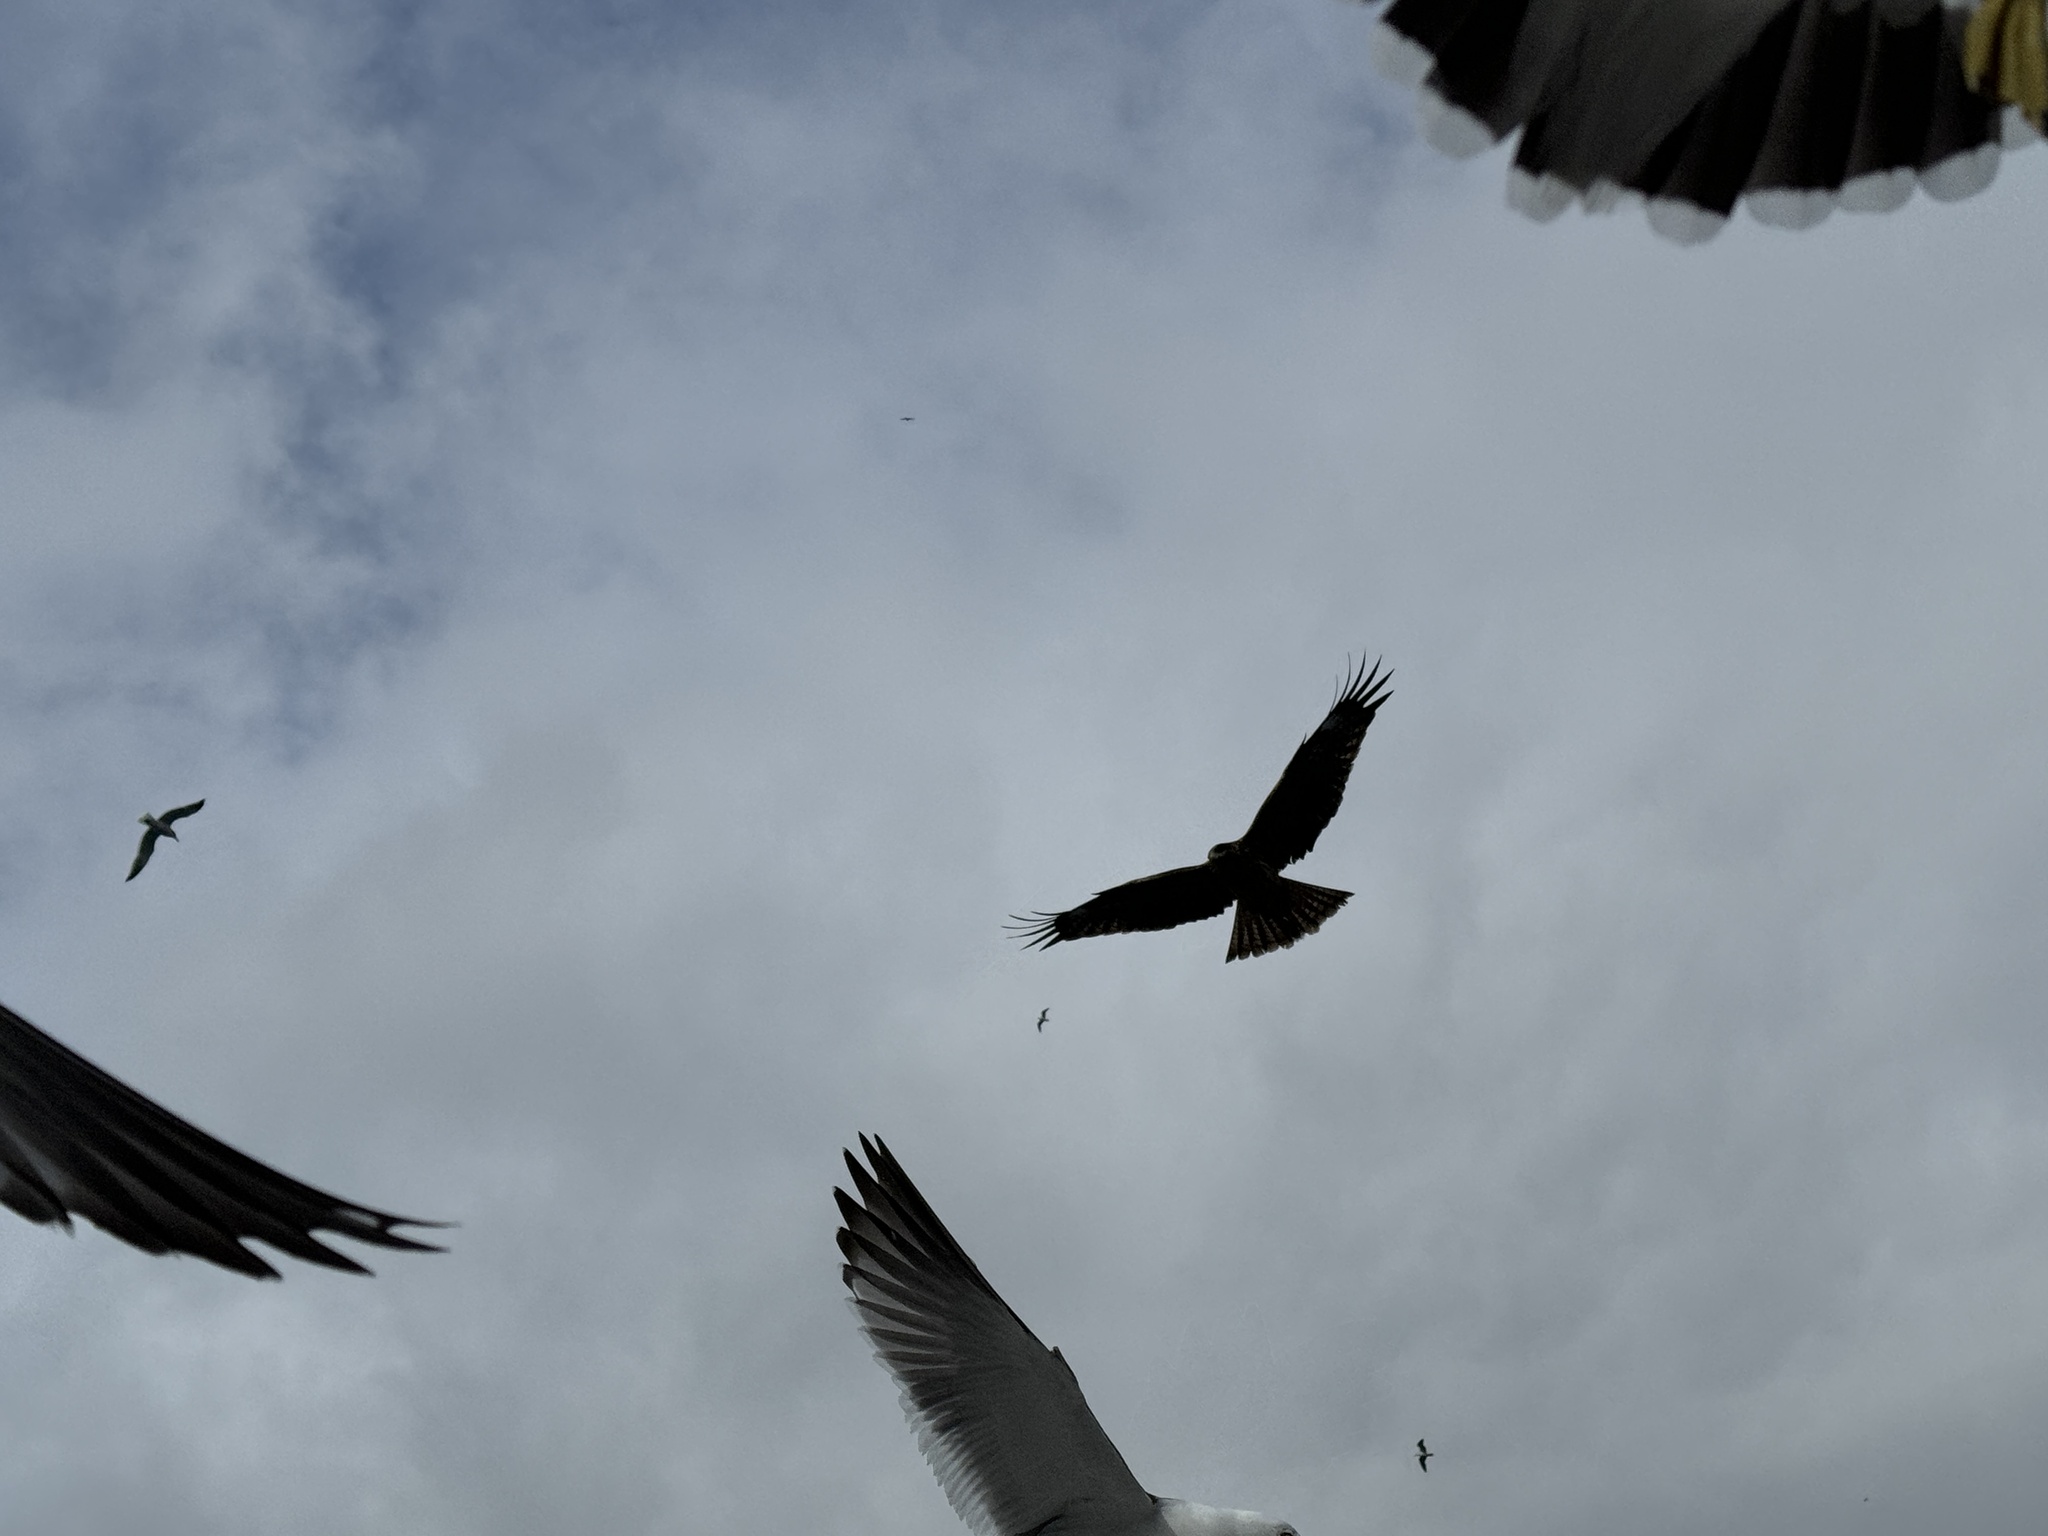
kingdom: Animalia
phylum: Chordata
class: Aves
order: Accipitriformes
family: Accipitridae
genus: Milvus
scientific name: Milvus migrans
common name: Black kite
